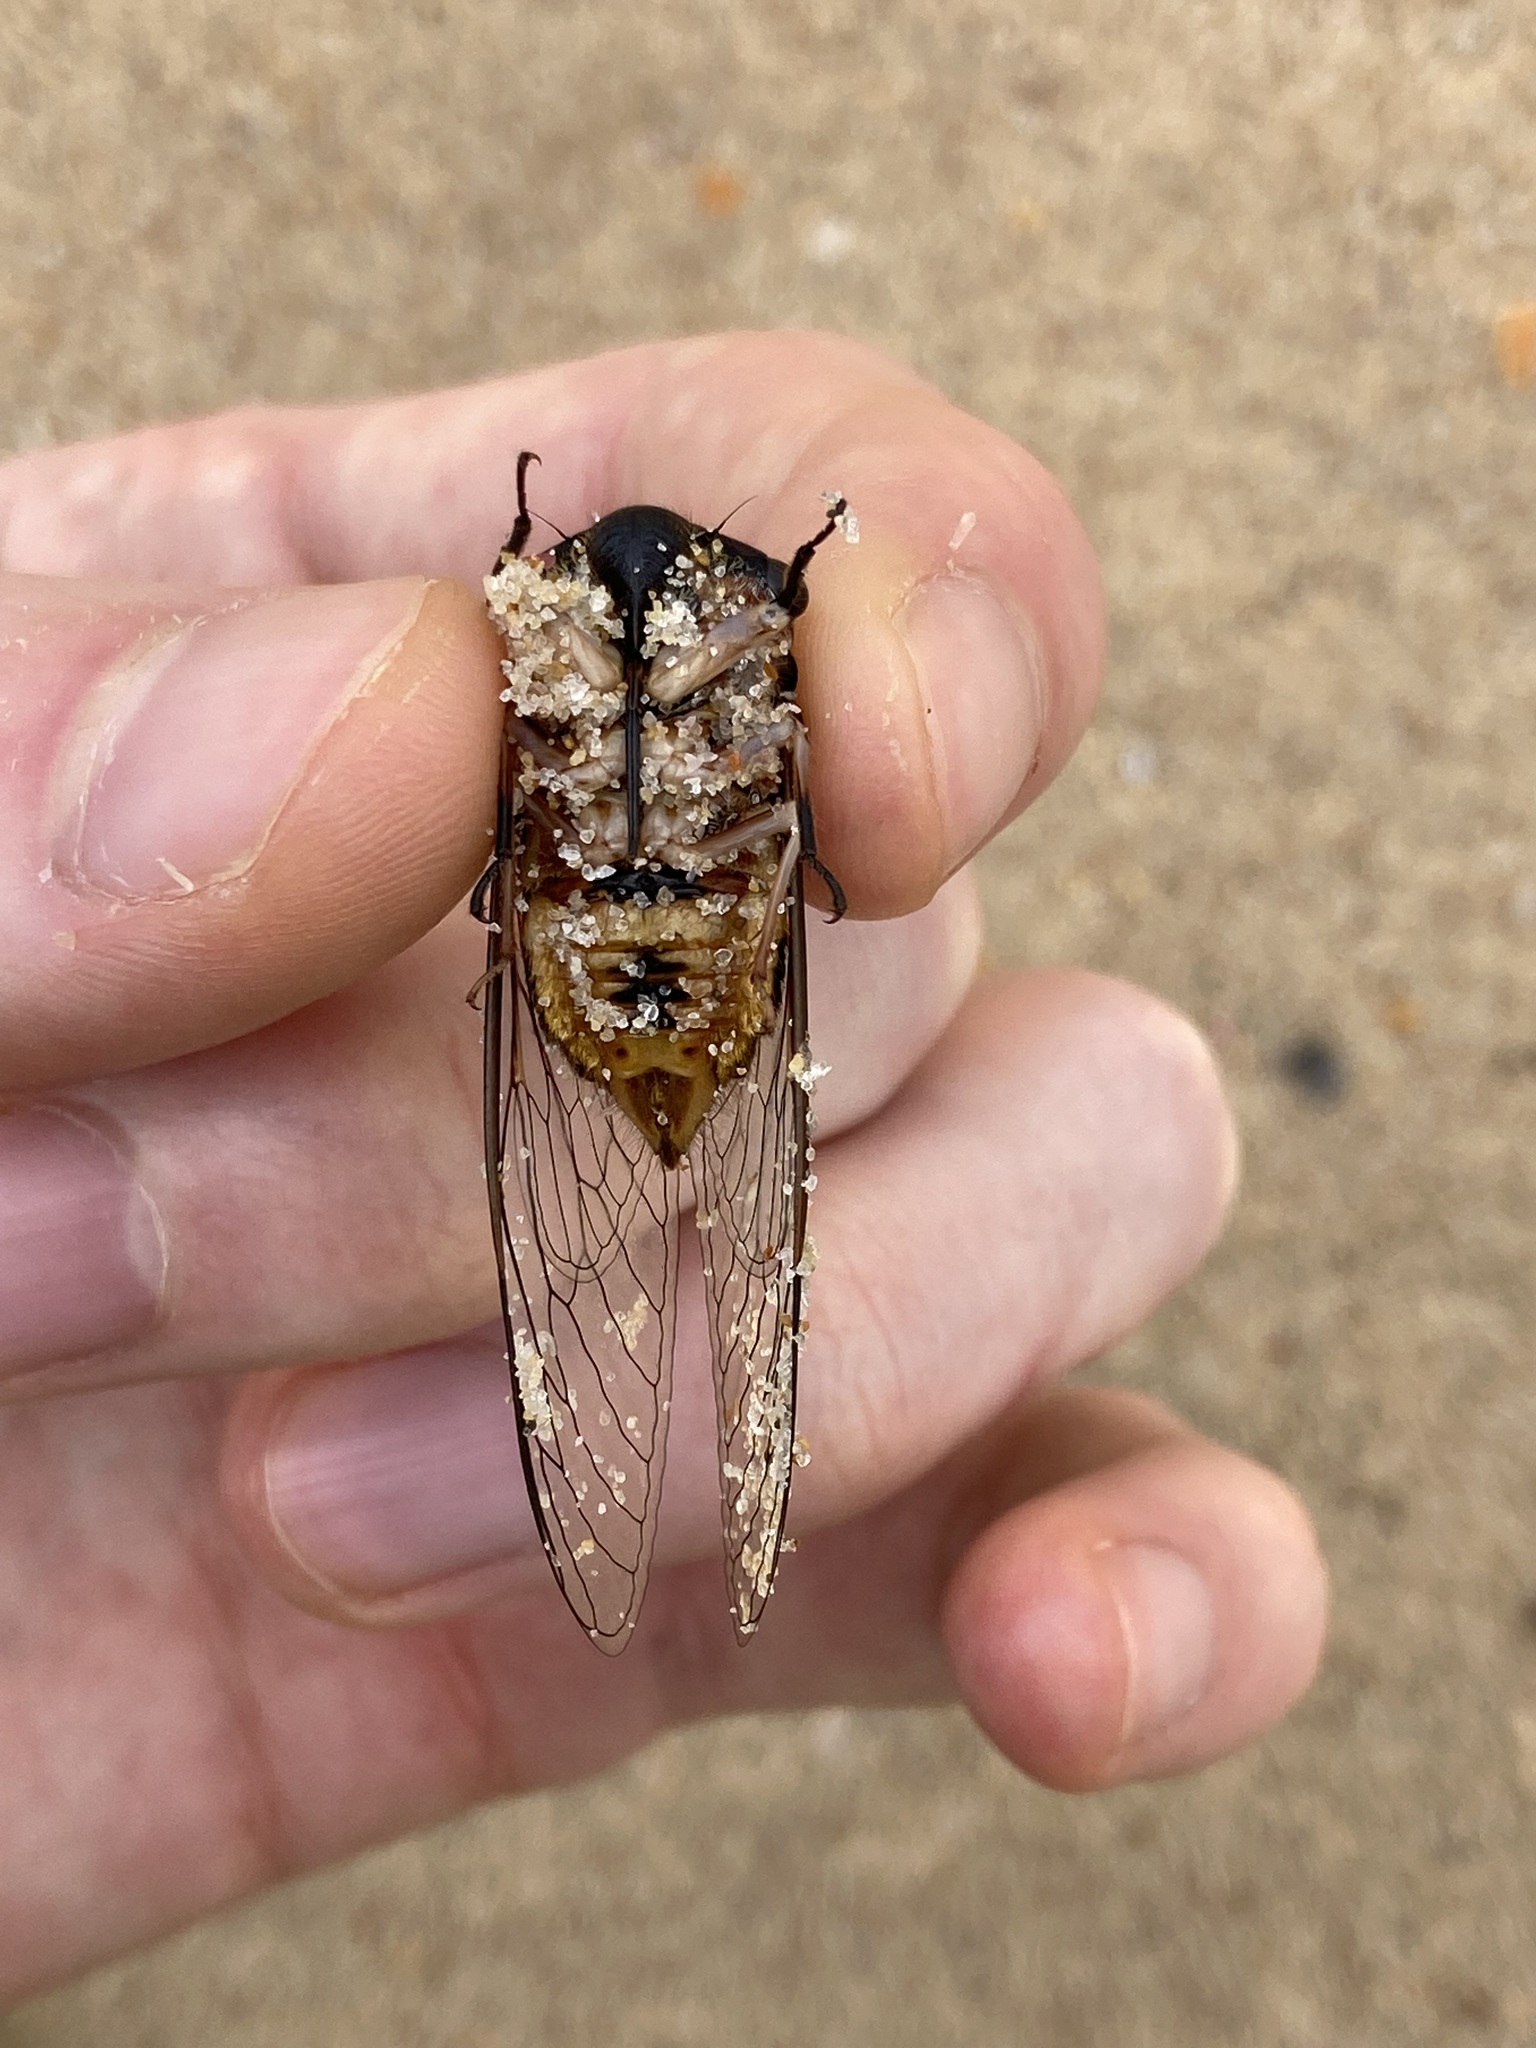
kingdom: Animalia
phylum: Arthropoda
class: Insecta
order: Hemiptera
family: Cicadidae
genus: Psaltoda
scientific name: Psaltoda harrisii
